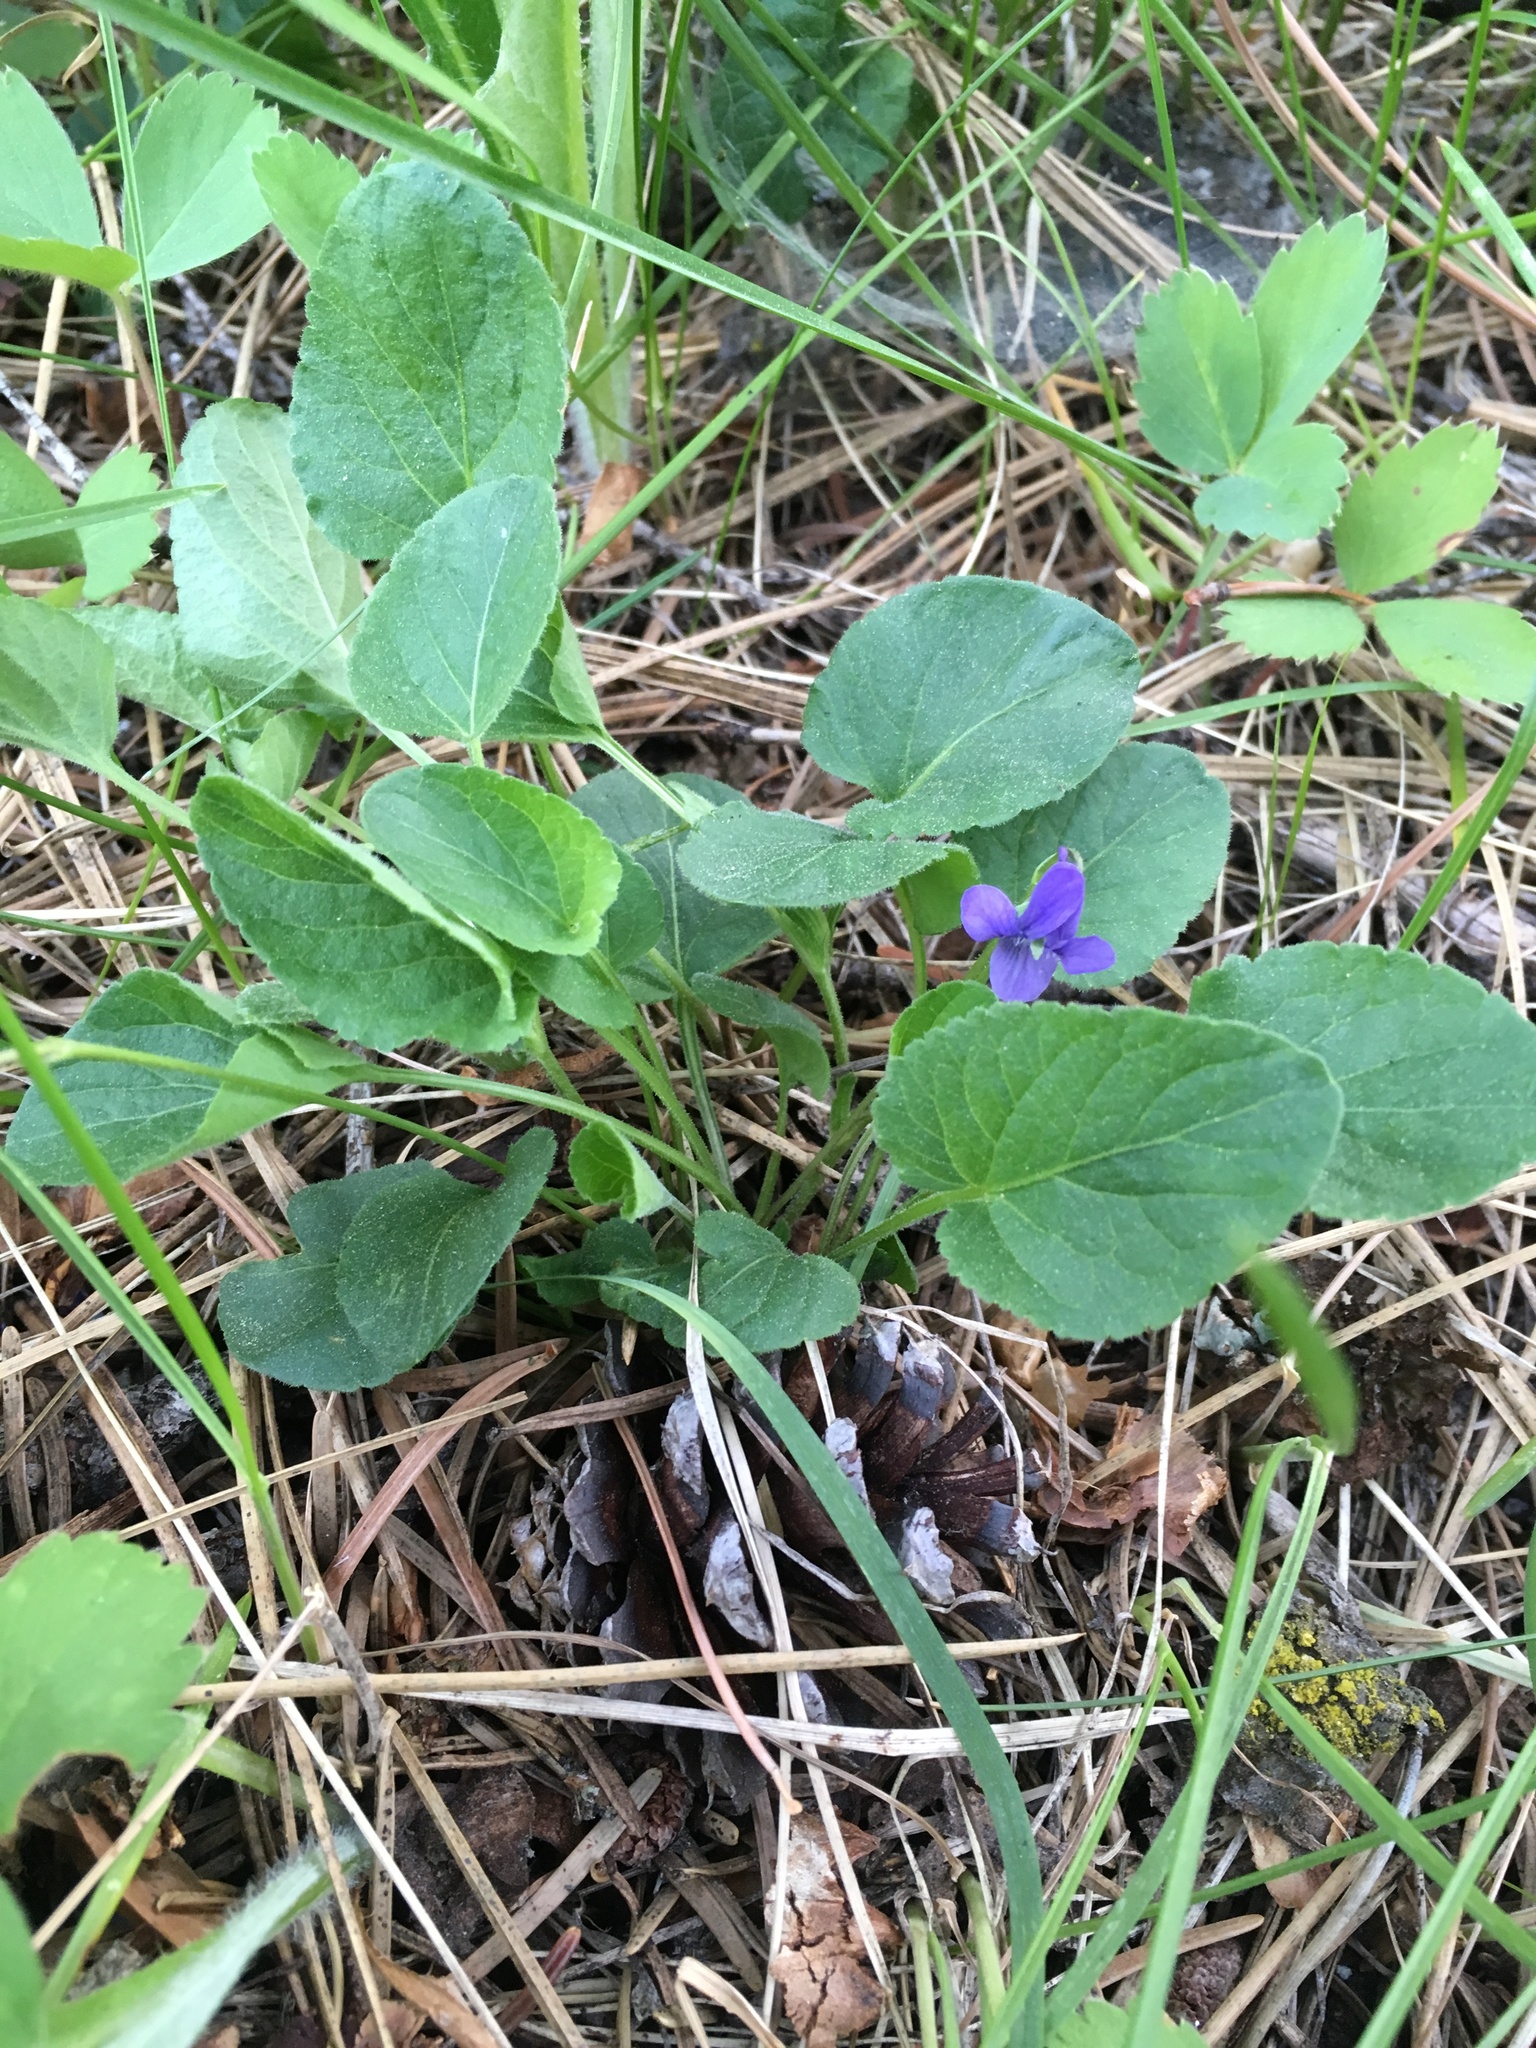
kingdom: Plantae
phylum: Tracheophyta
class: Magnoliopsida
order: Malpighiales
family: Violaceae
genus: Viola
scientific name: Viola adunca
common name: Sand violet
